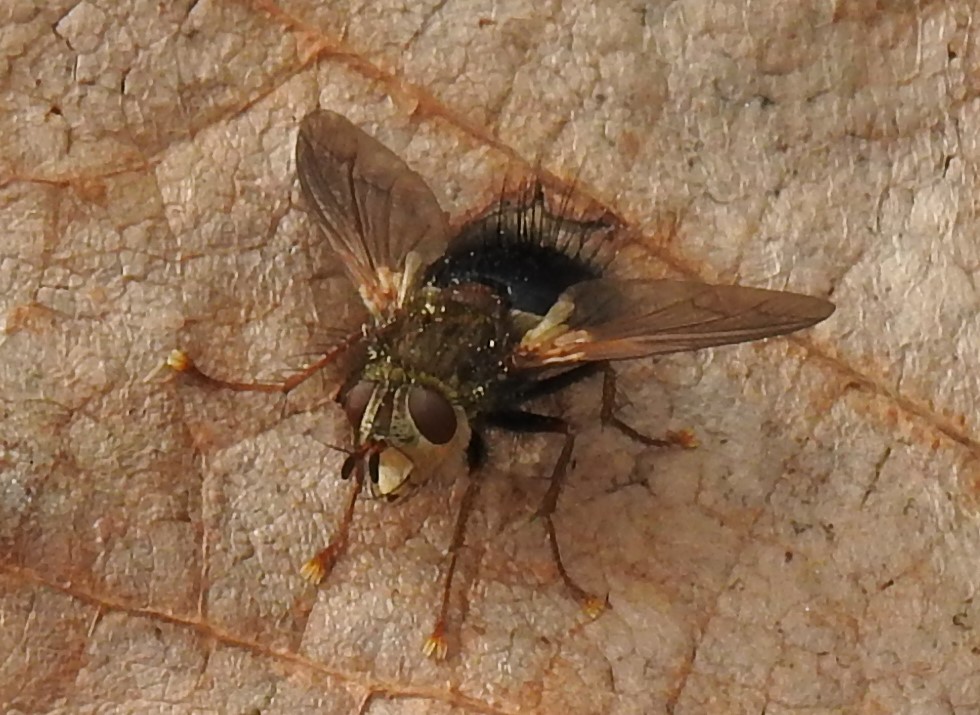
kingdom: Animalia
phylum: Arthropoda
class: Insecta
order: Diptera
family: Tachinidae
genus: Epalpus
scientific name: Epalpus signifer
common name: Early tachinid fly
